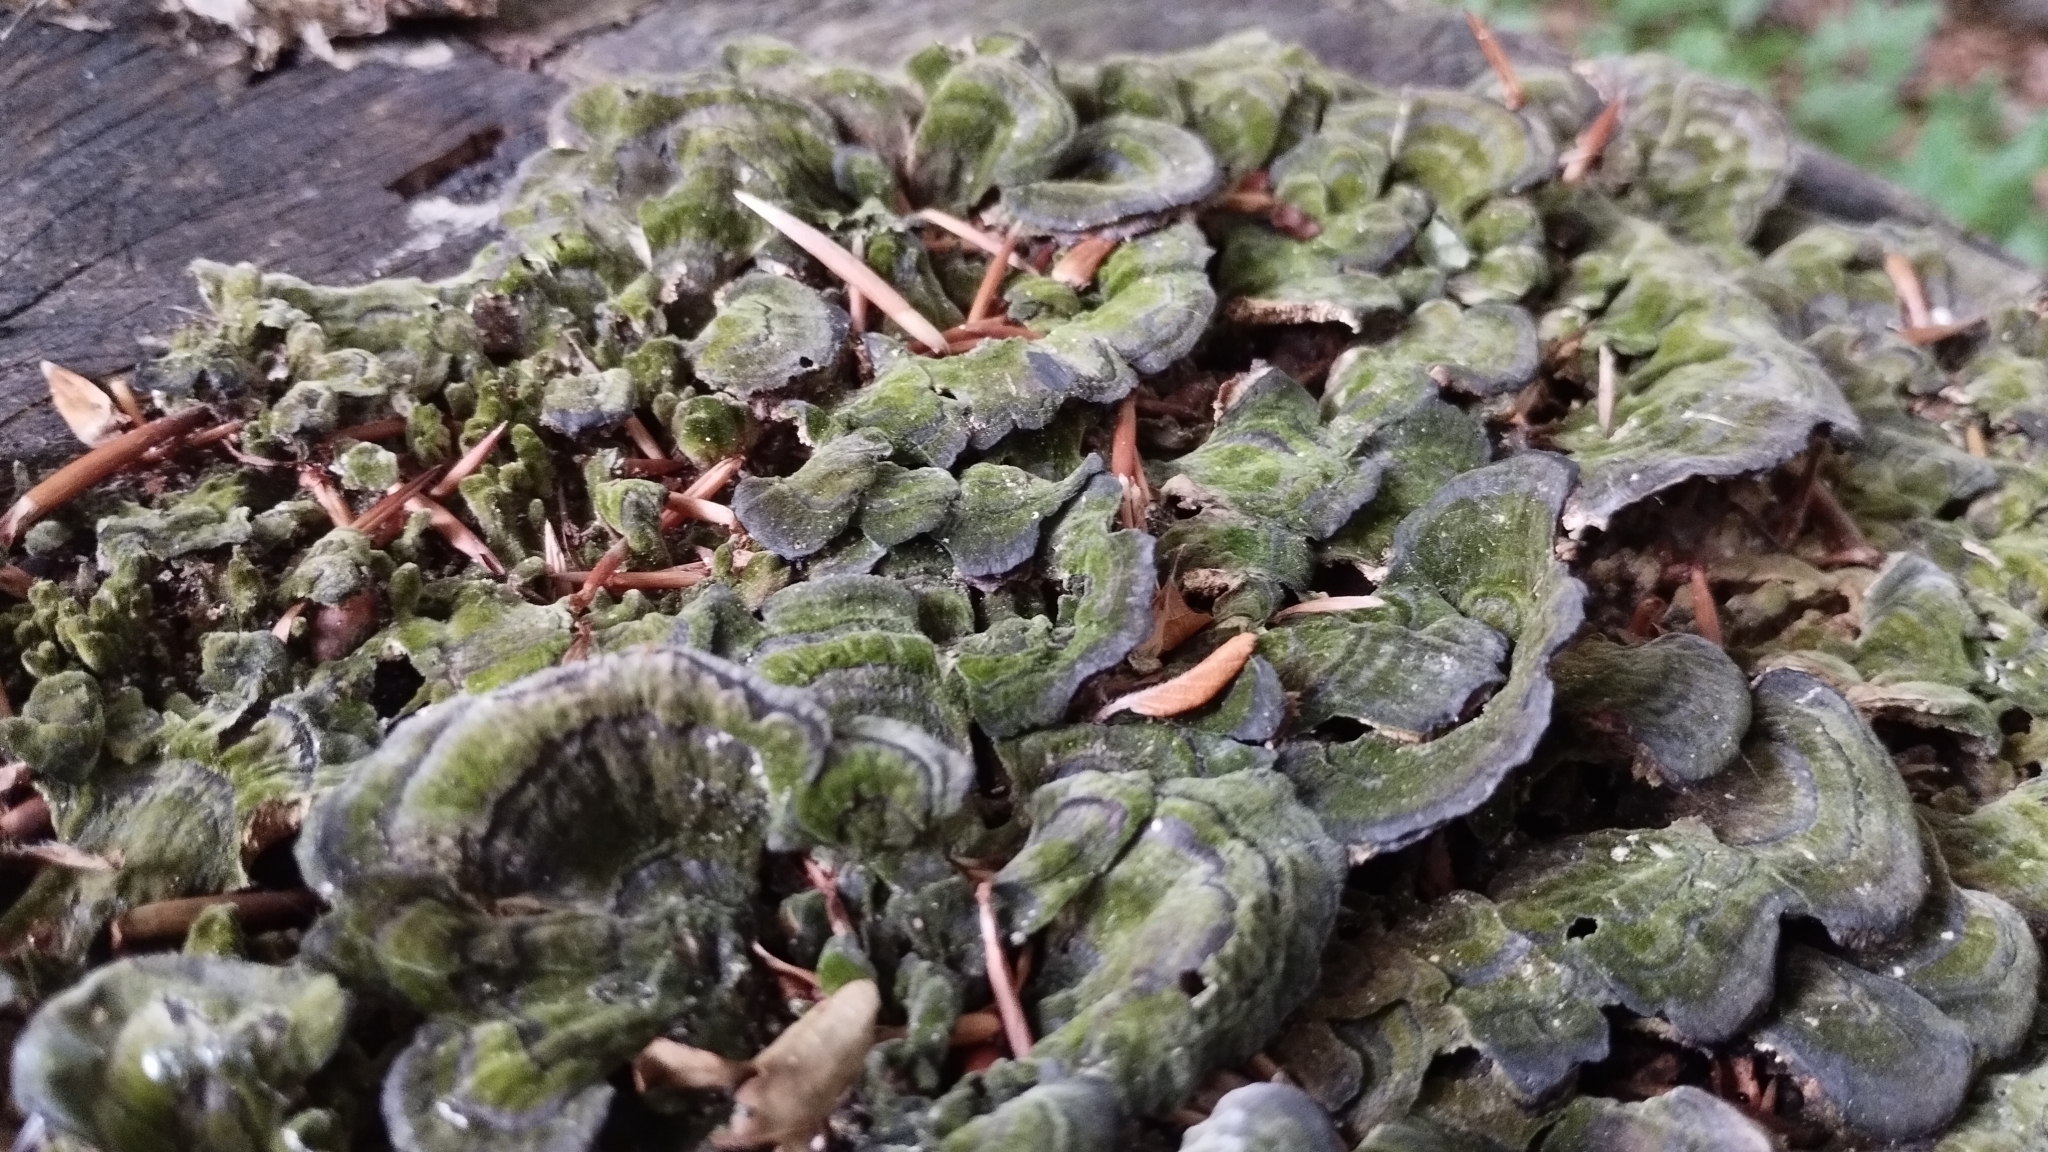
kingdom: Fungi
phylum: Basidiomycota
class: Agaricomycetes
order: Polyporales
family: Polyporaceae
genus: Trametes
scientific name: Trametes versicolor
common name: Turkeytail
